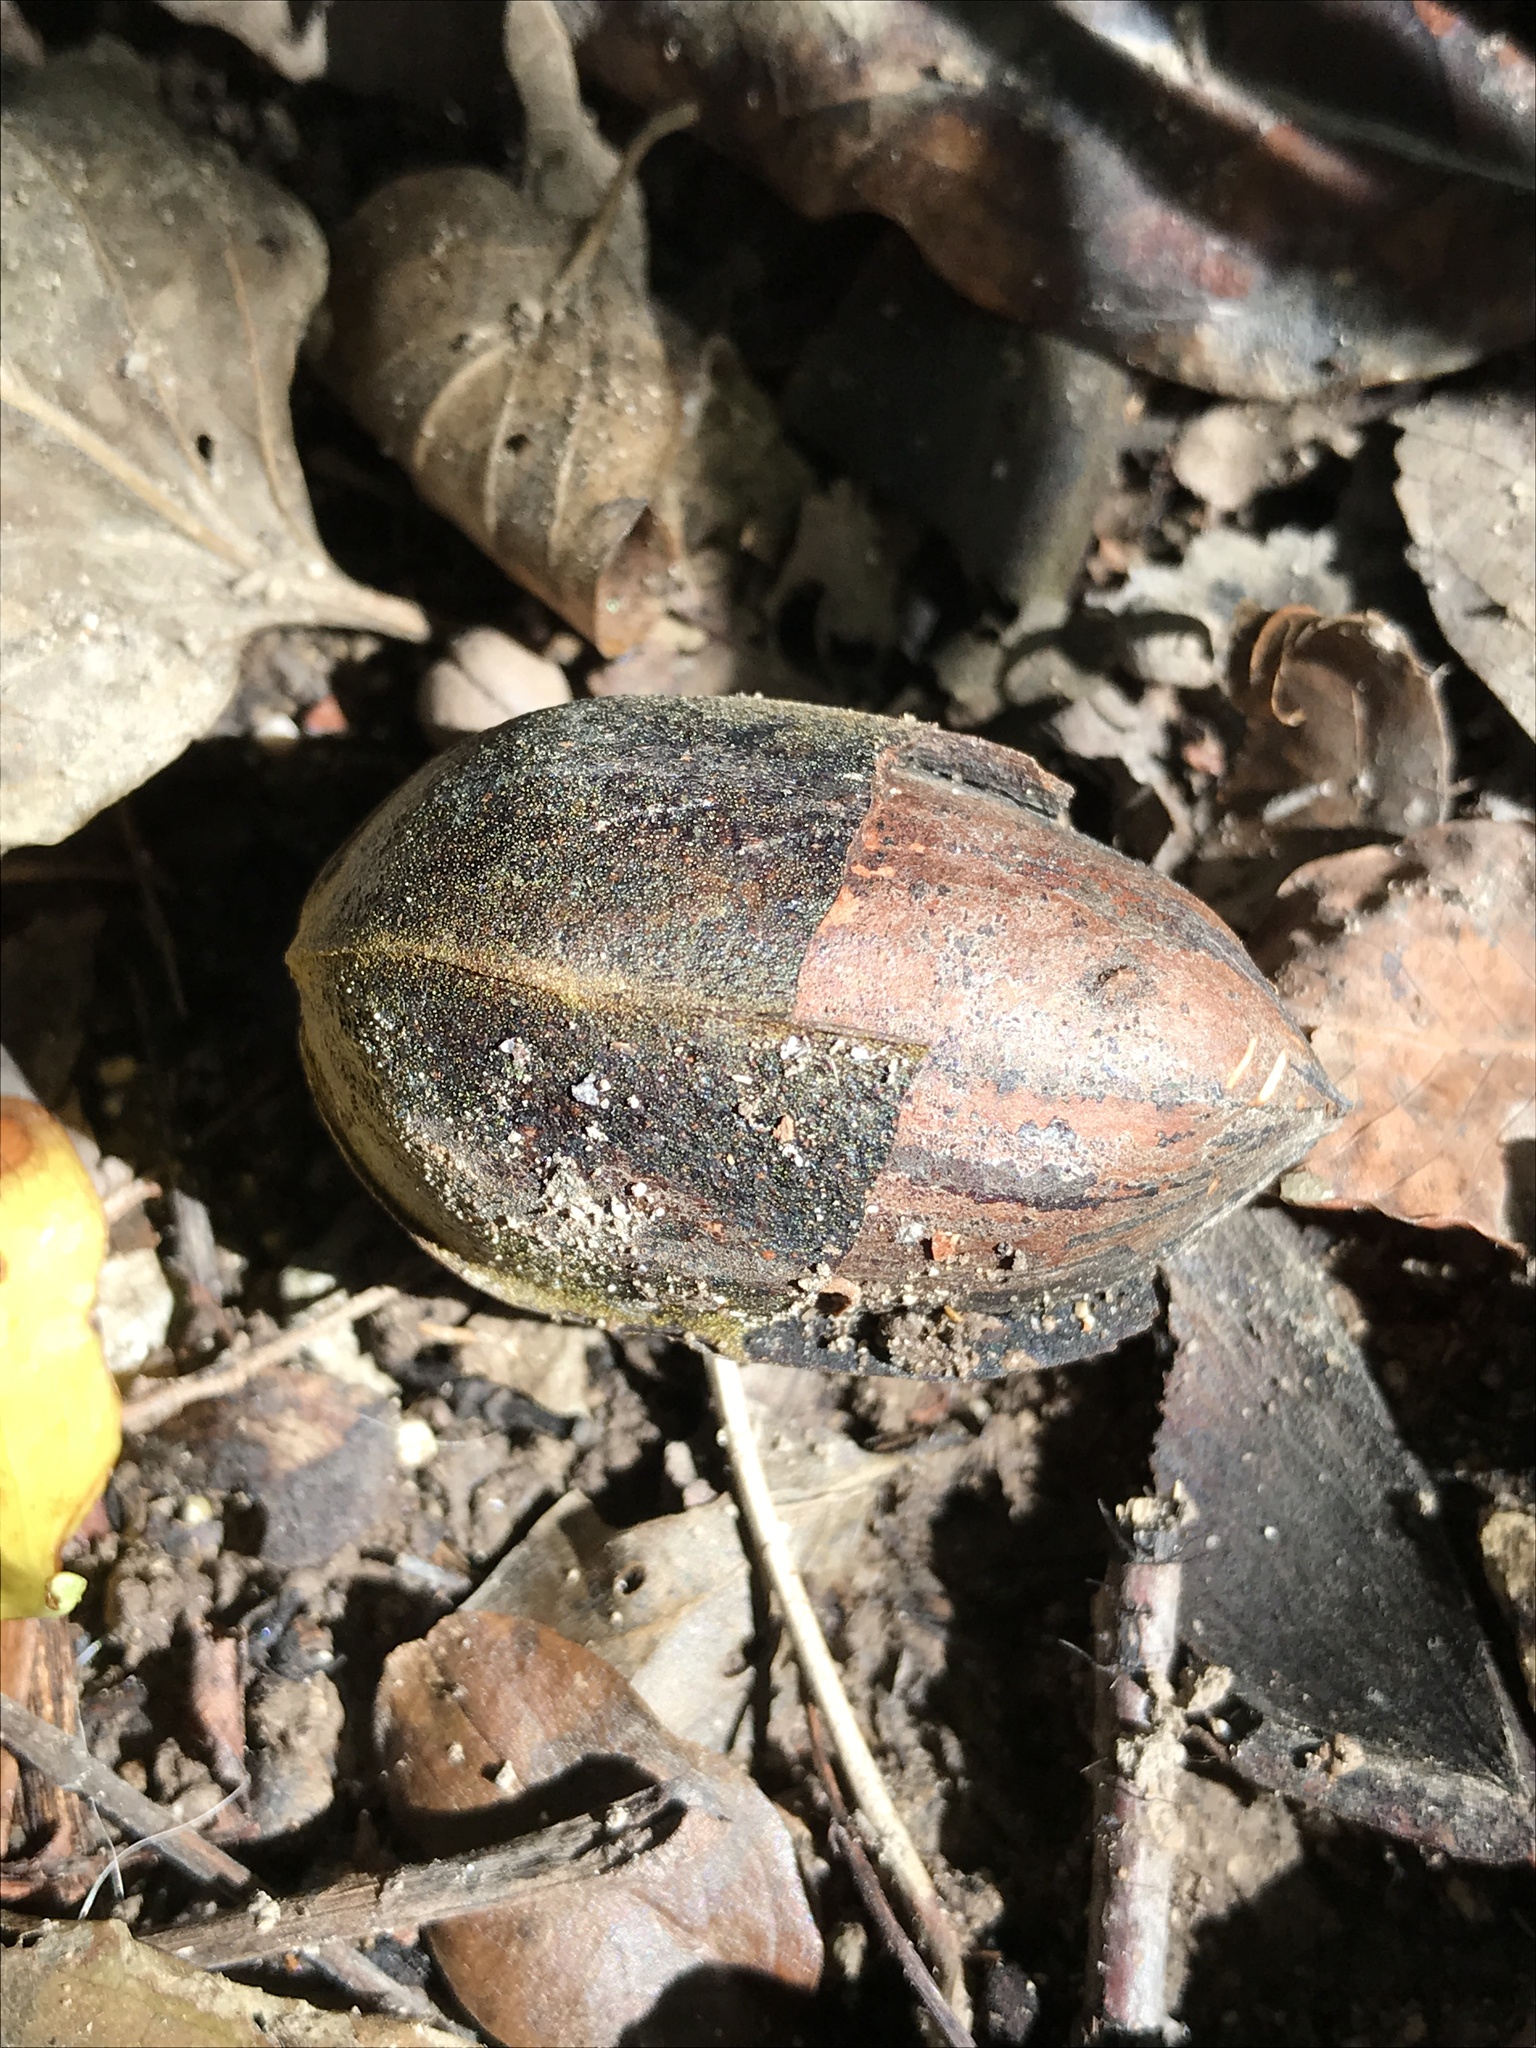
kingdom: Plantae
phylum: Tracheophyta
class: Magnoliopsida
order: Fagales
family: Juglandaceae
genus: Carya
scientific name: Carya illinoinensis
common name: Pecan
